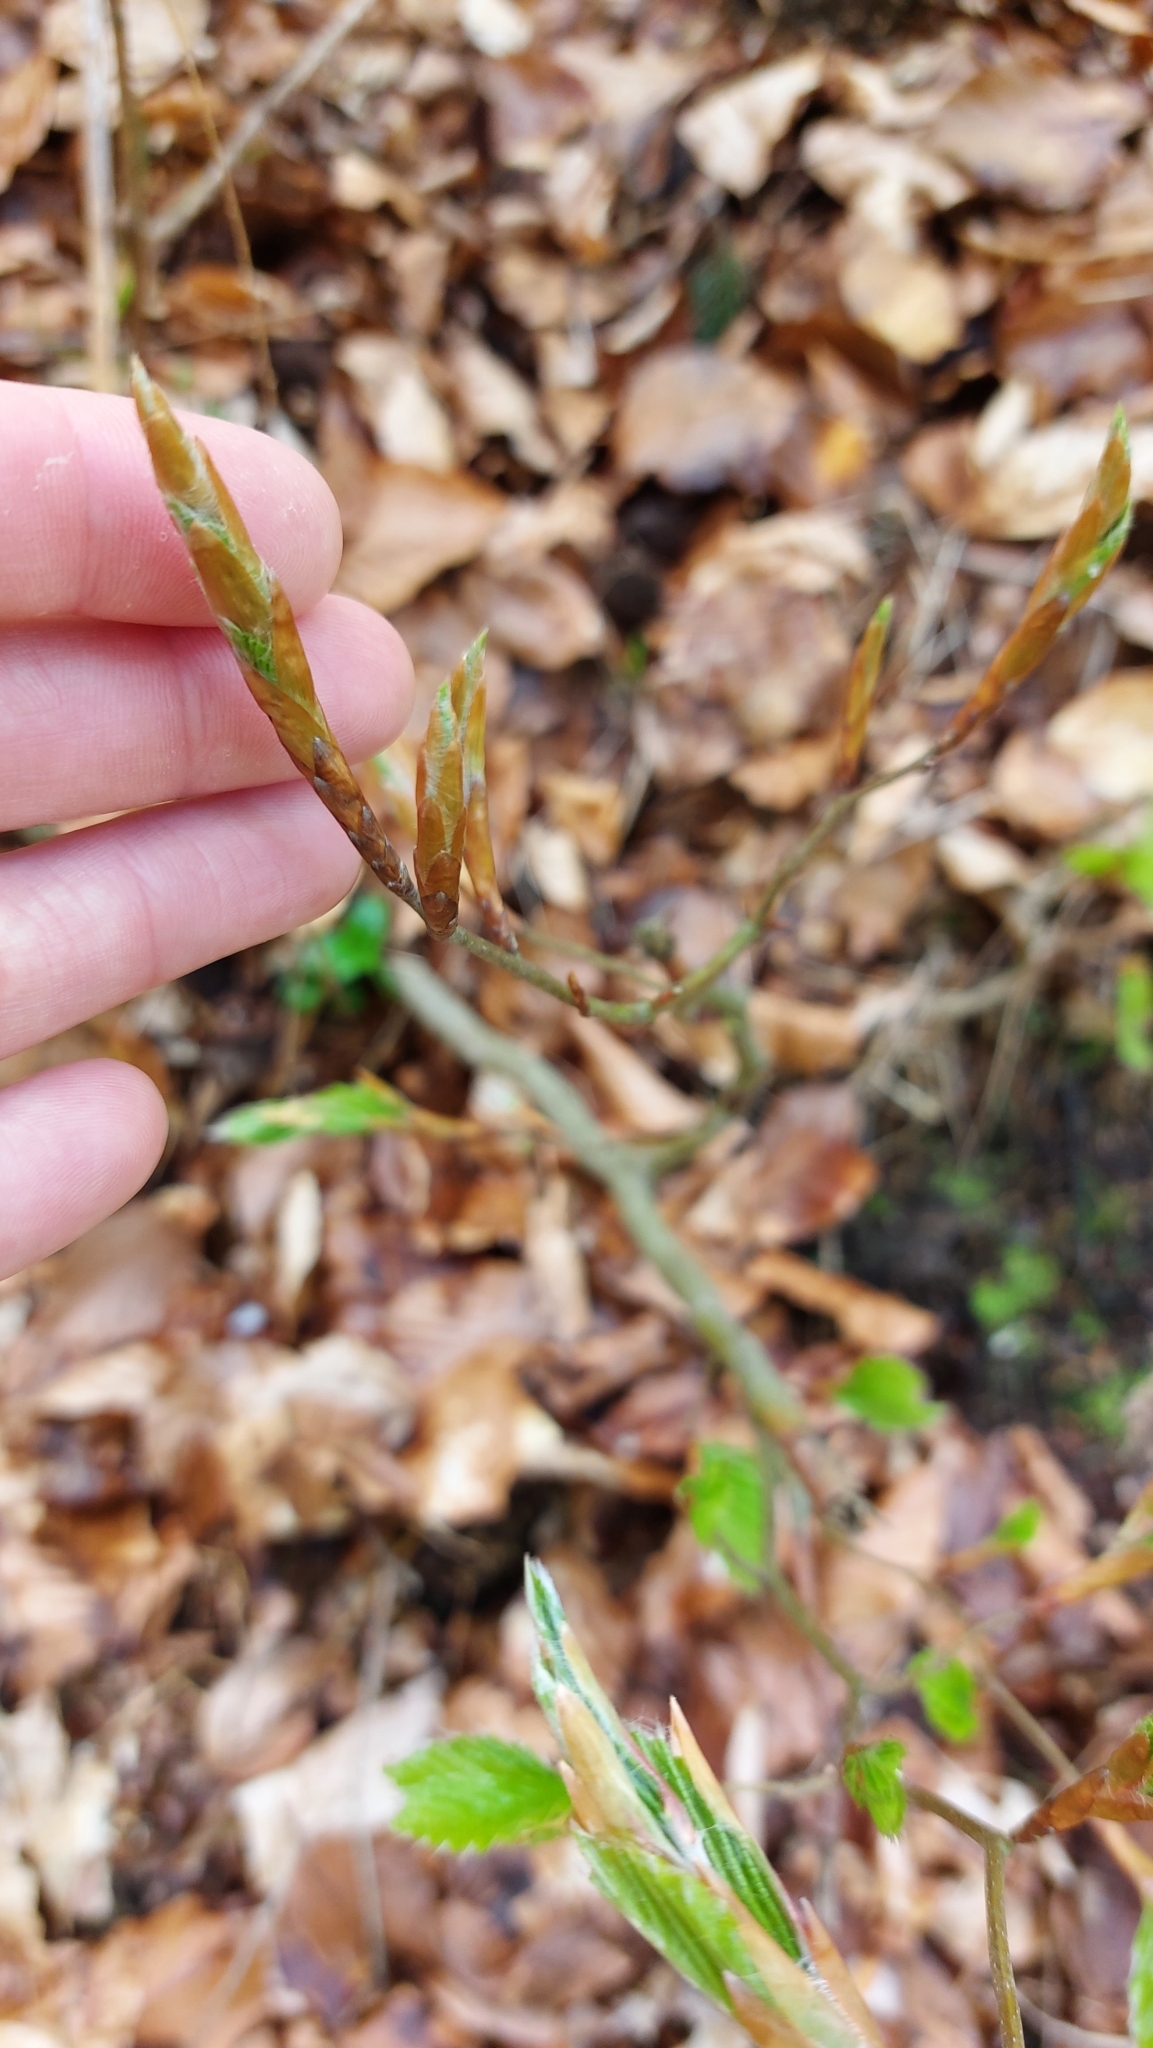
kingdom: Plantae
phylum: Tracheophyta
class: Magnoliopsida
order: Fagales
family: Fagaceae
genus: Fagus
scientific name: Fagus sylvatica
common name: Beech
